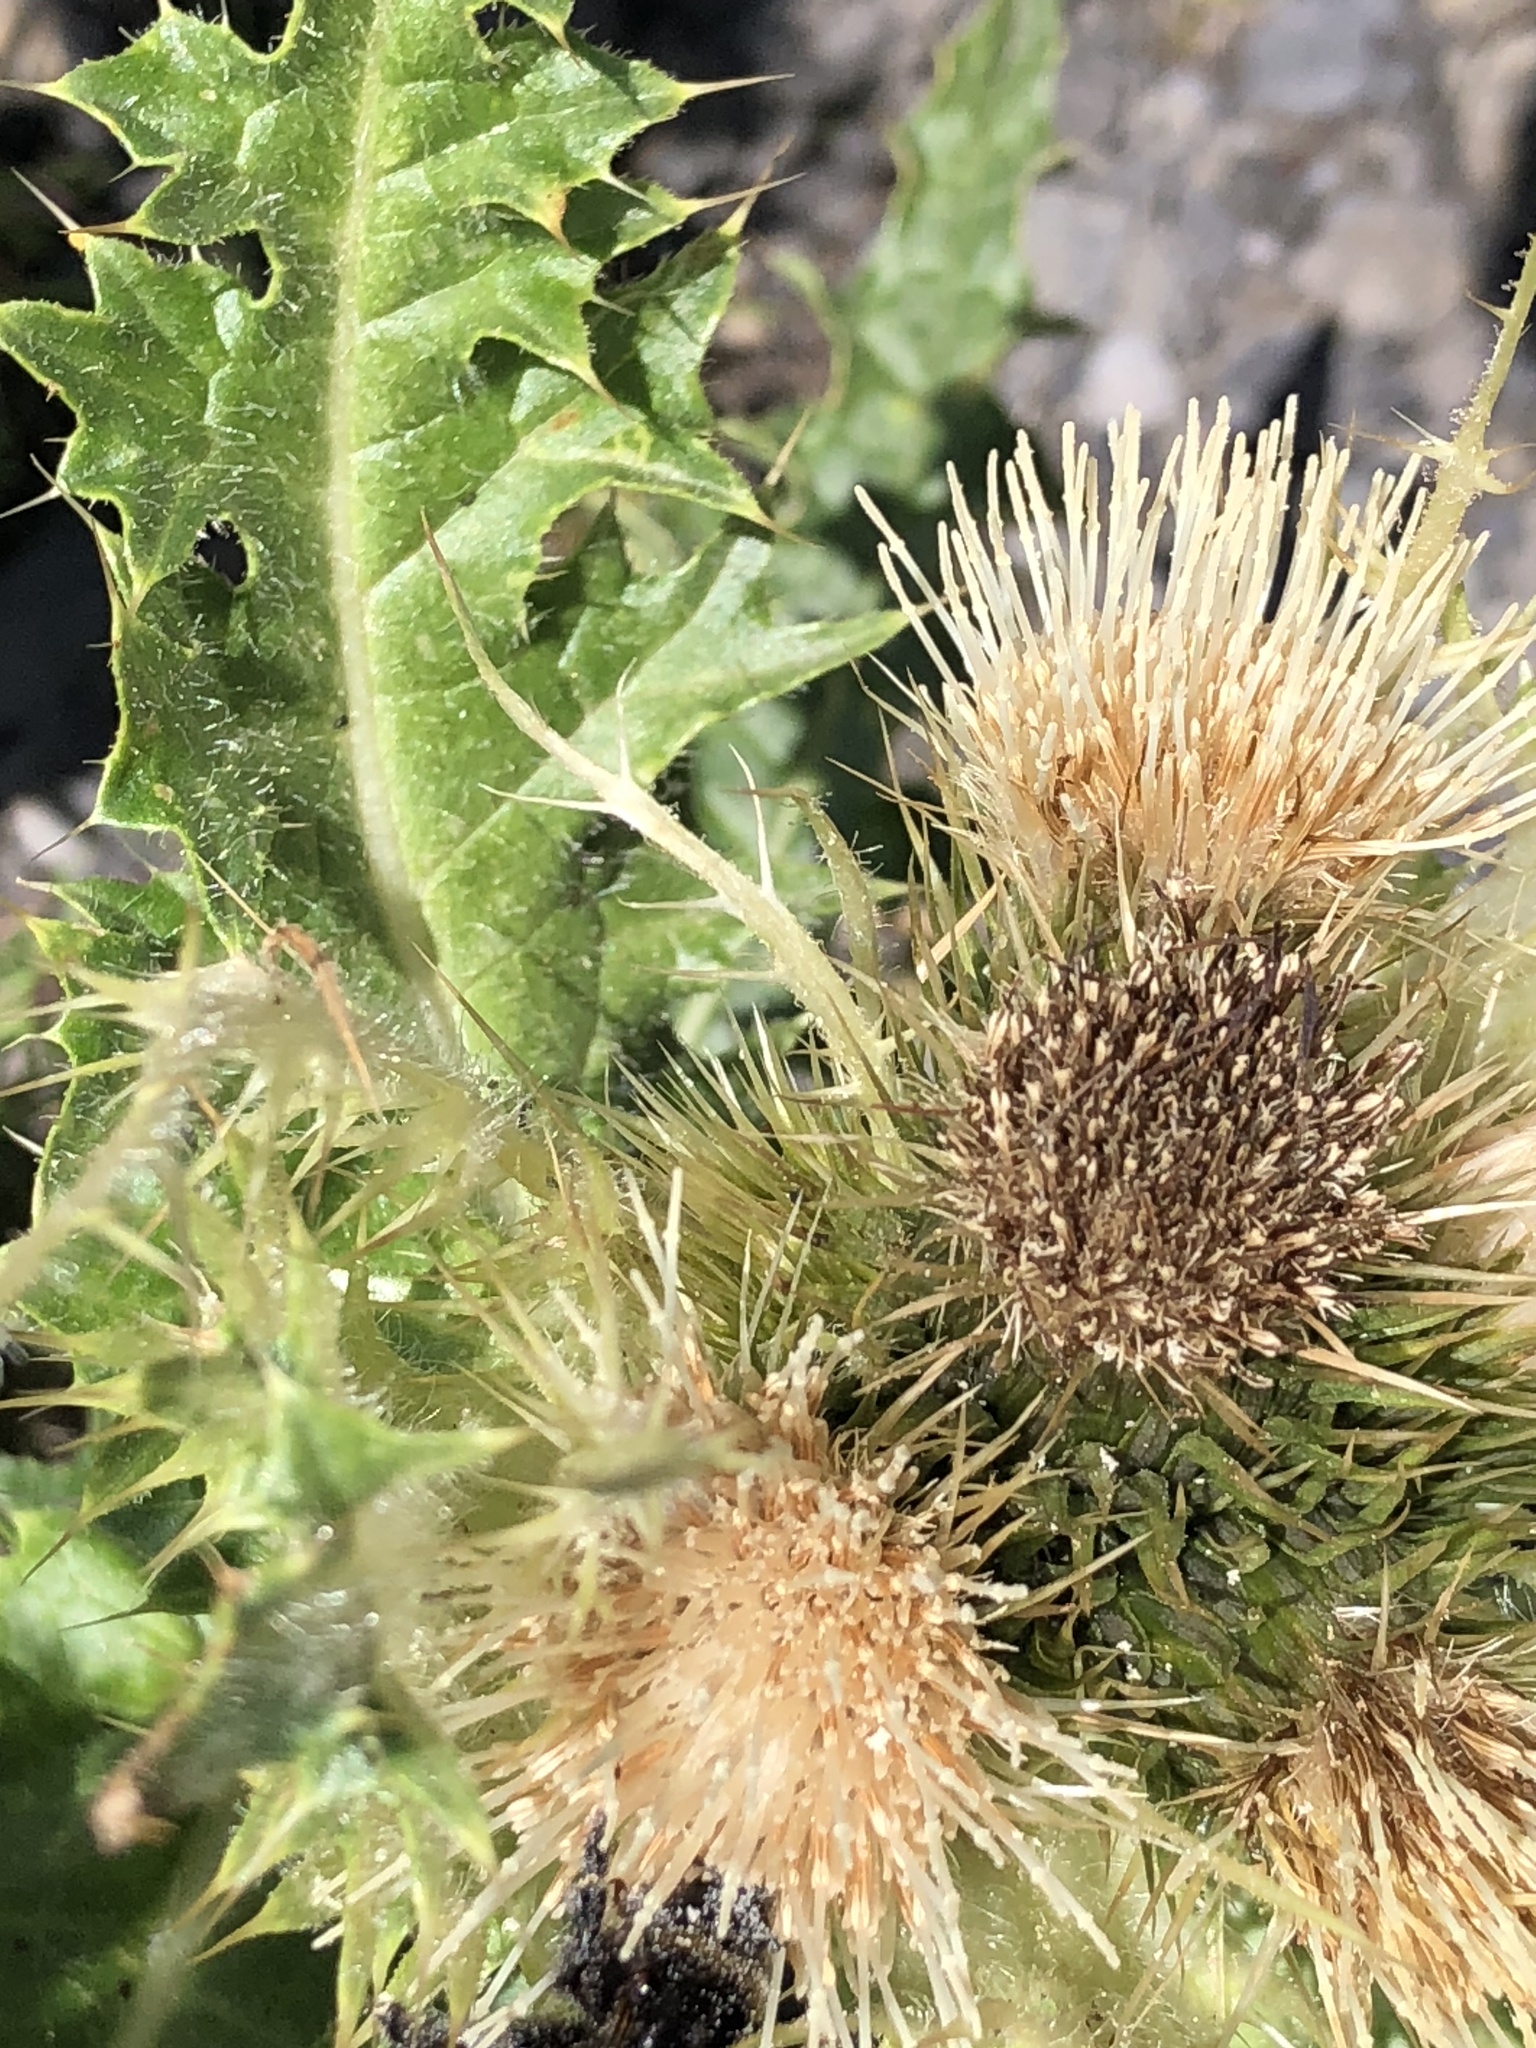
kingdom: Plantae
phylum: Tracheophyta
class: Magnoliopsida
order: Asterales
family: Asteraceae
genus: Cirsium
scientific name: Cirsium spinosissimum
